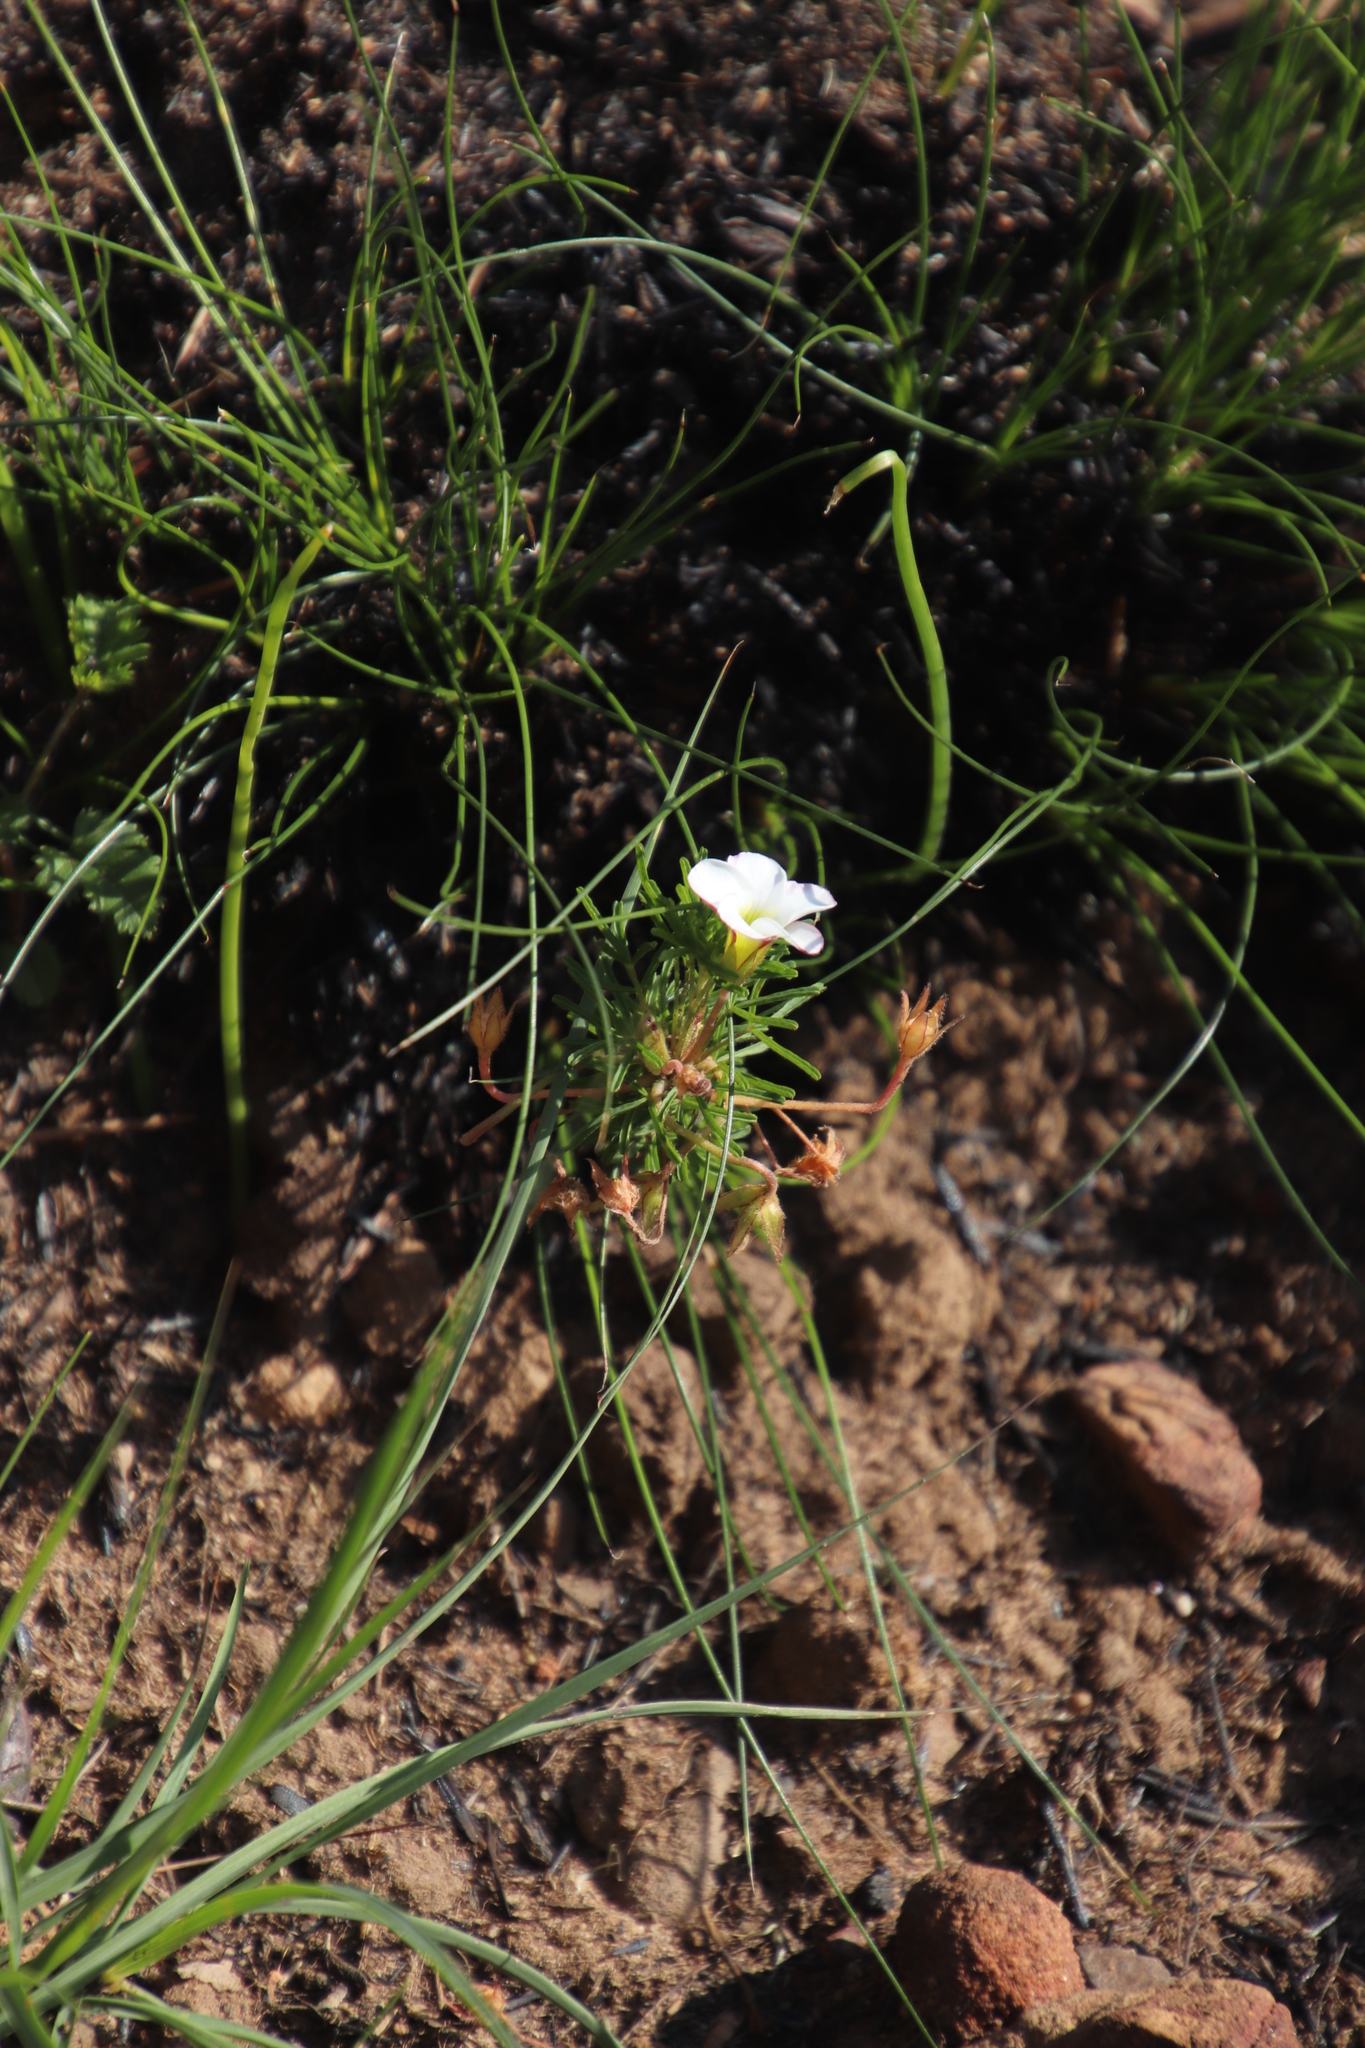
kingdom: Plantae
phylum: Tracheophyta
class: Magnoliopsida
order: Oxalidales
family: Oxalidaceae
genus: Oxalis
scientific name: Oxalis tenuifolia
